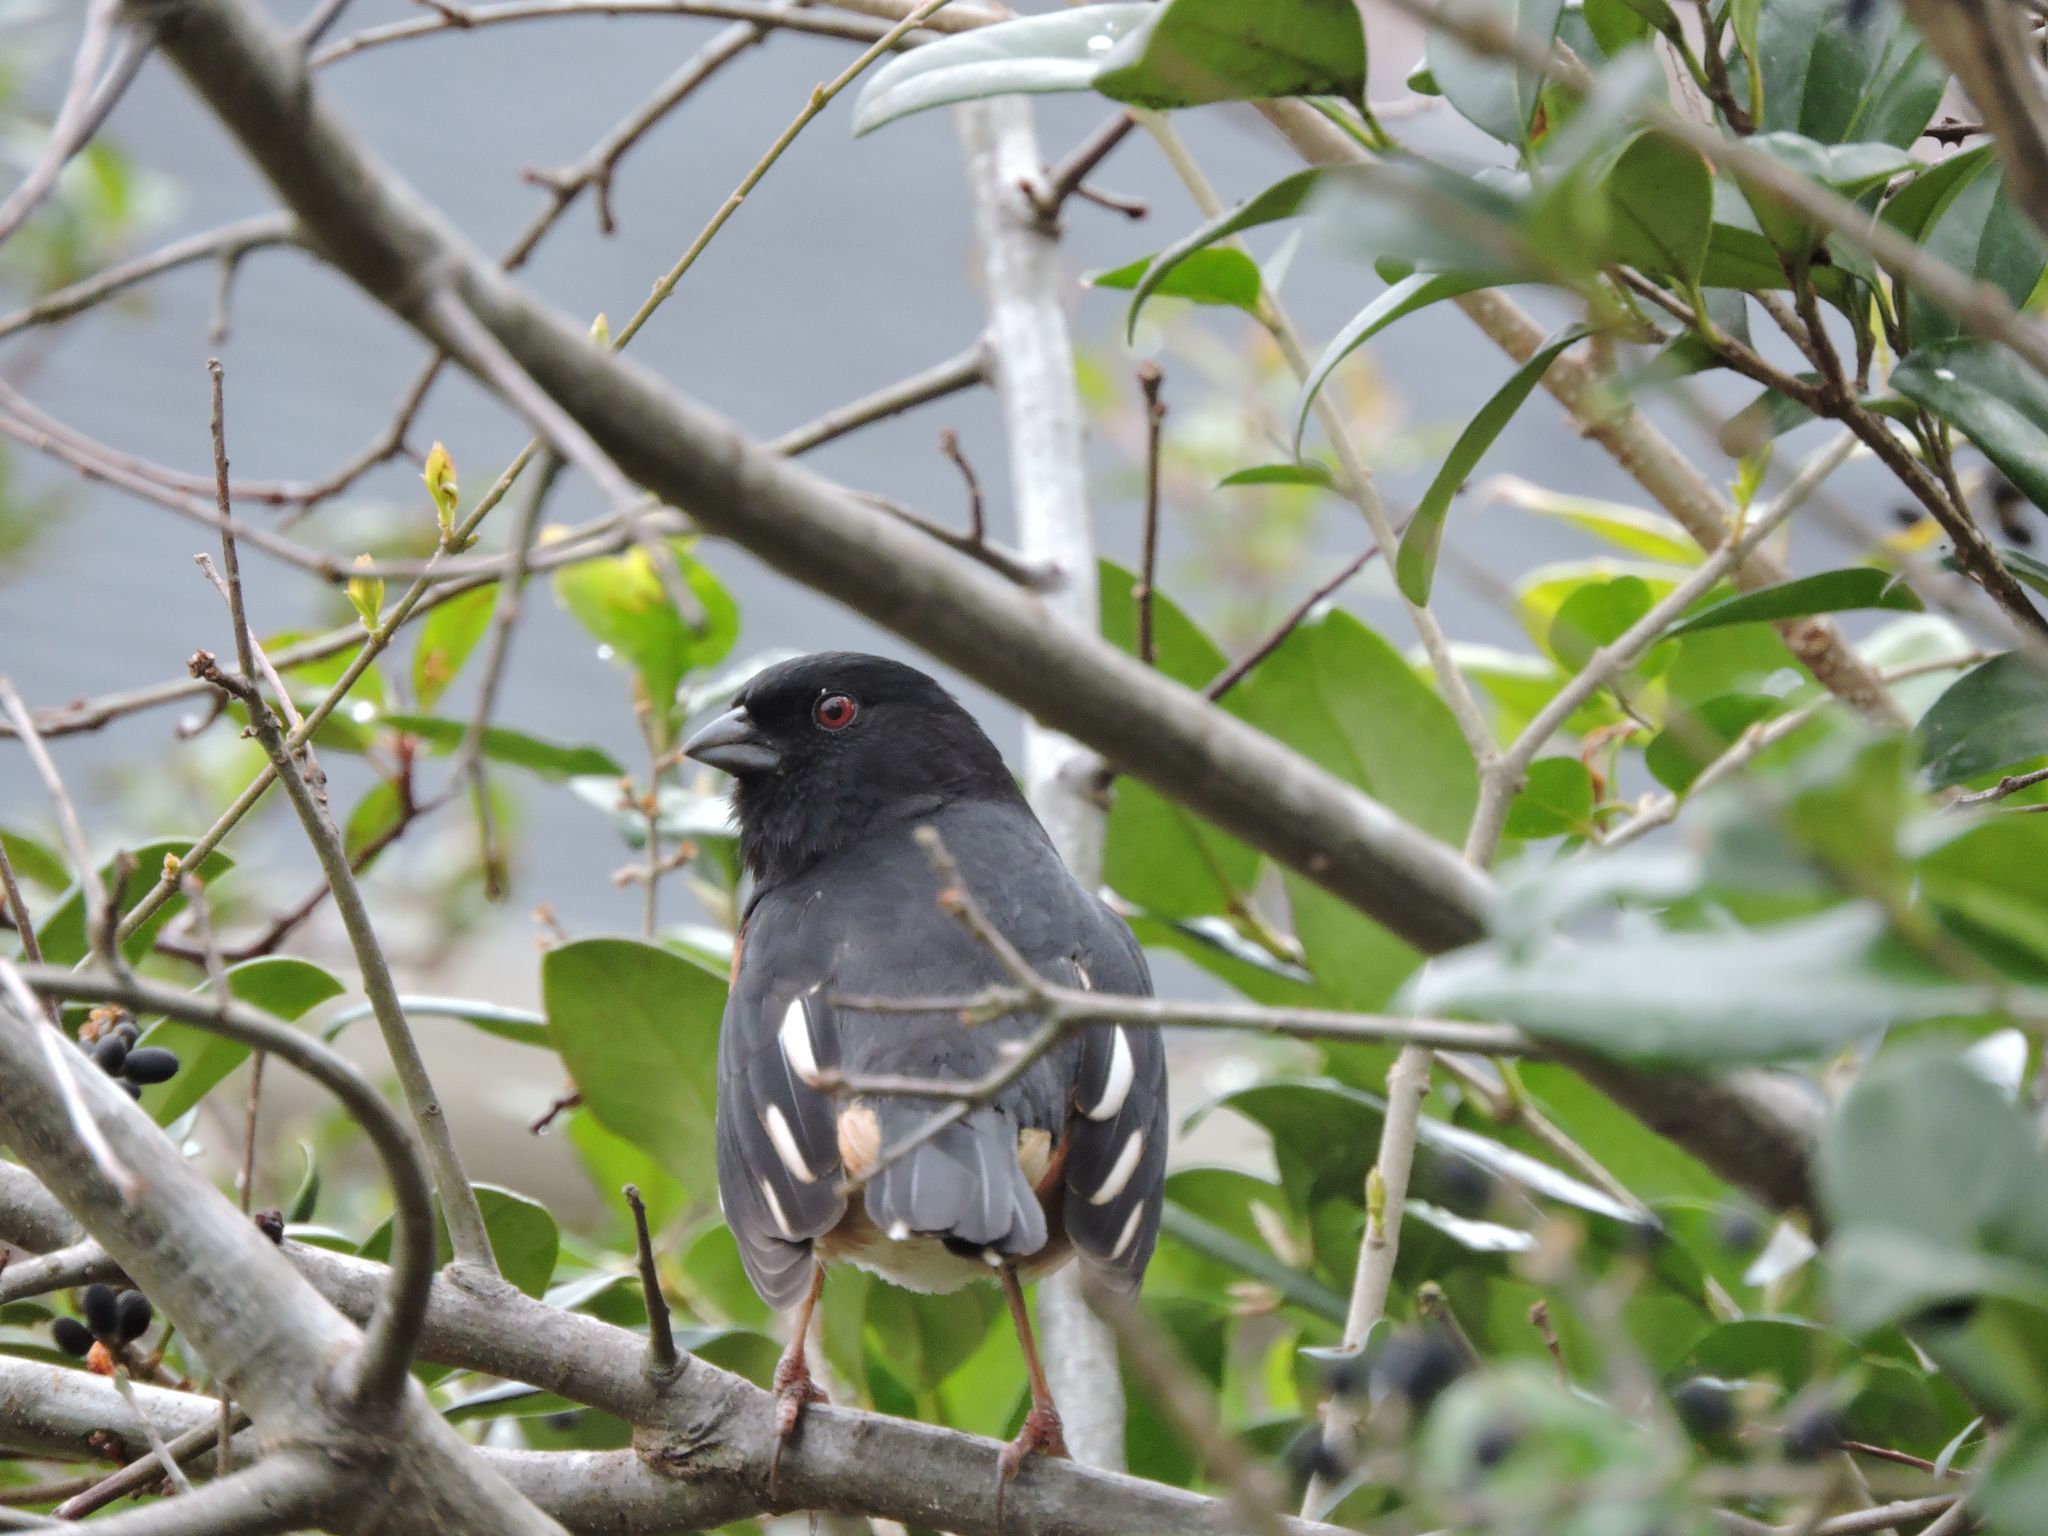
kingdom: Animalia
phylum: Chordata
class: Aves
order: Passeriformes
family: Passerellidae
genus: Pipilo
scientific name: Pipilo erythrophthalmus
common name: Eastern towhee
